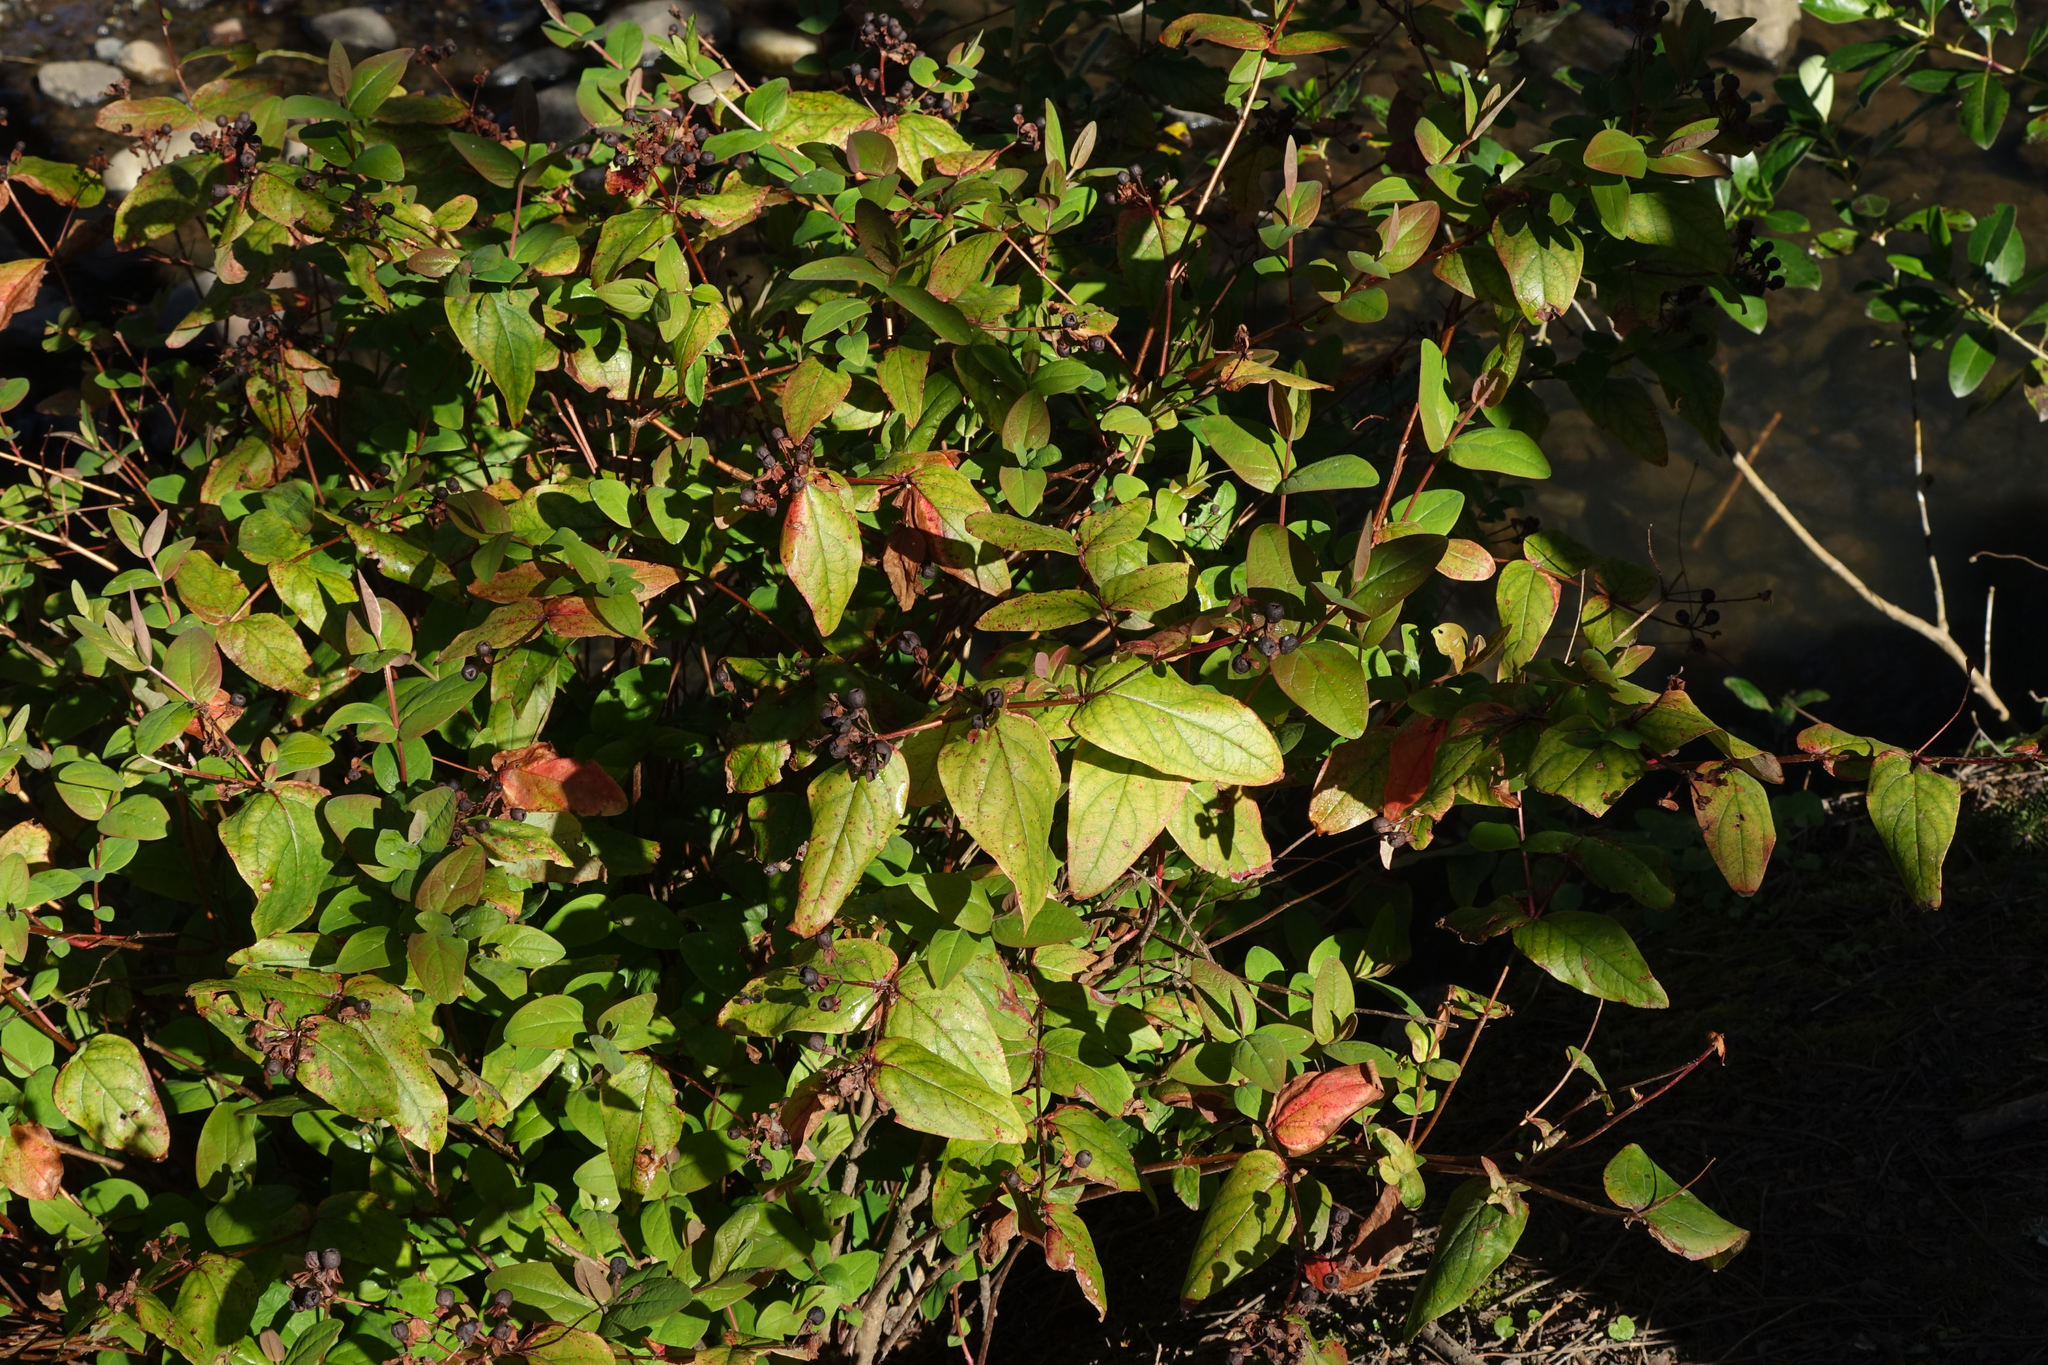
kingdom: Plantae
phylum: Tracheophyta
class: Magnoliopsida
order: Malpighiales
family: Hypericaceae
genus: Hypericum
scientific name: Hypericum androsaemum
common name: Sweet-amber
